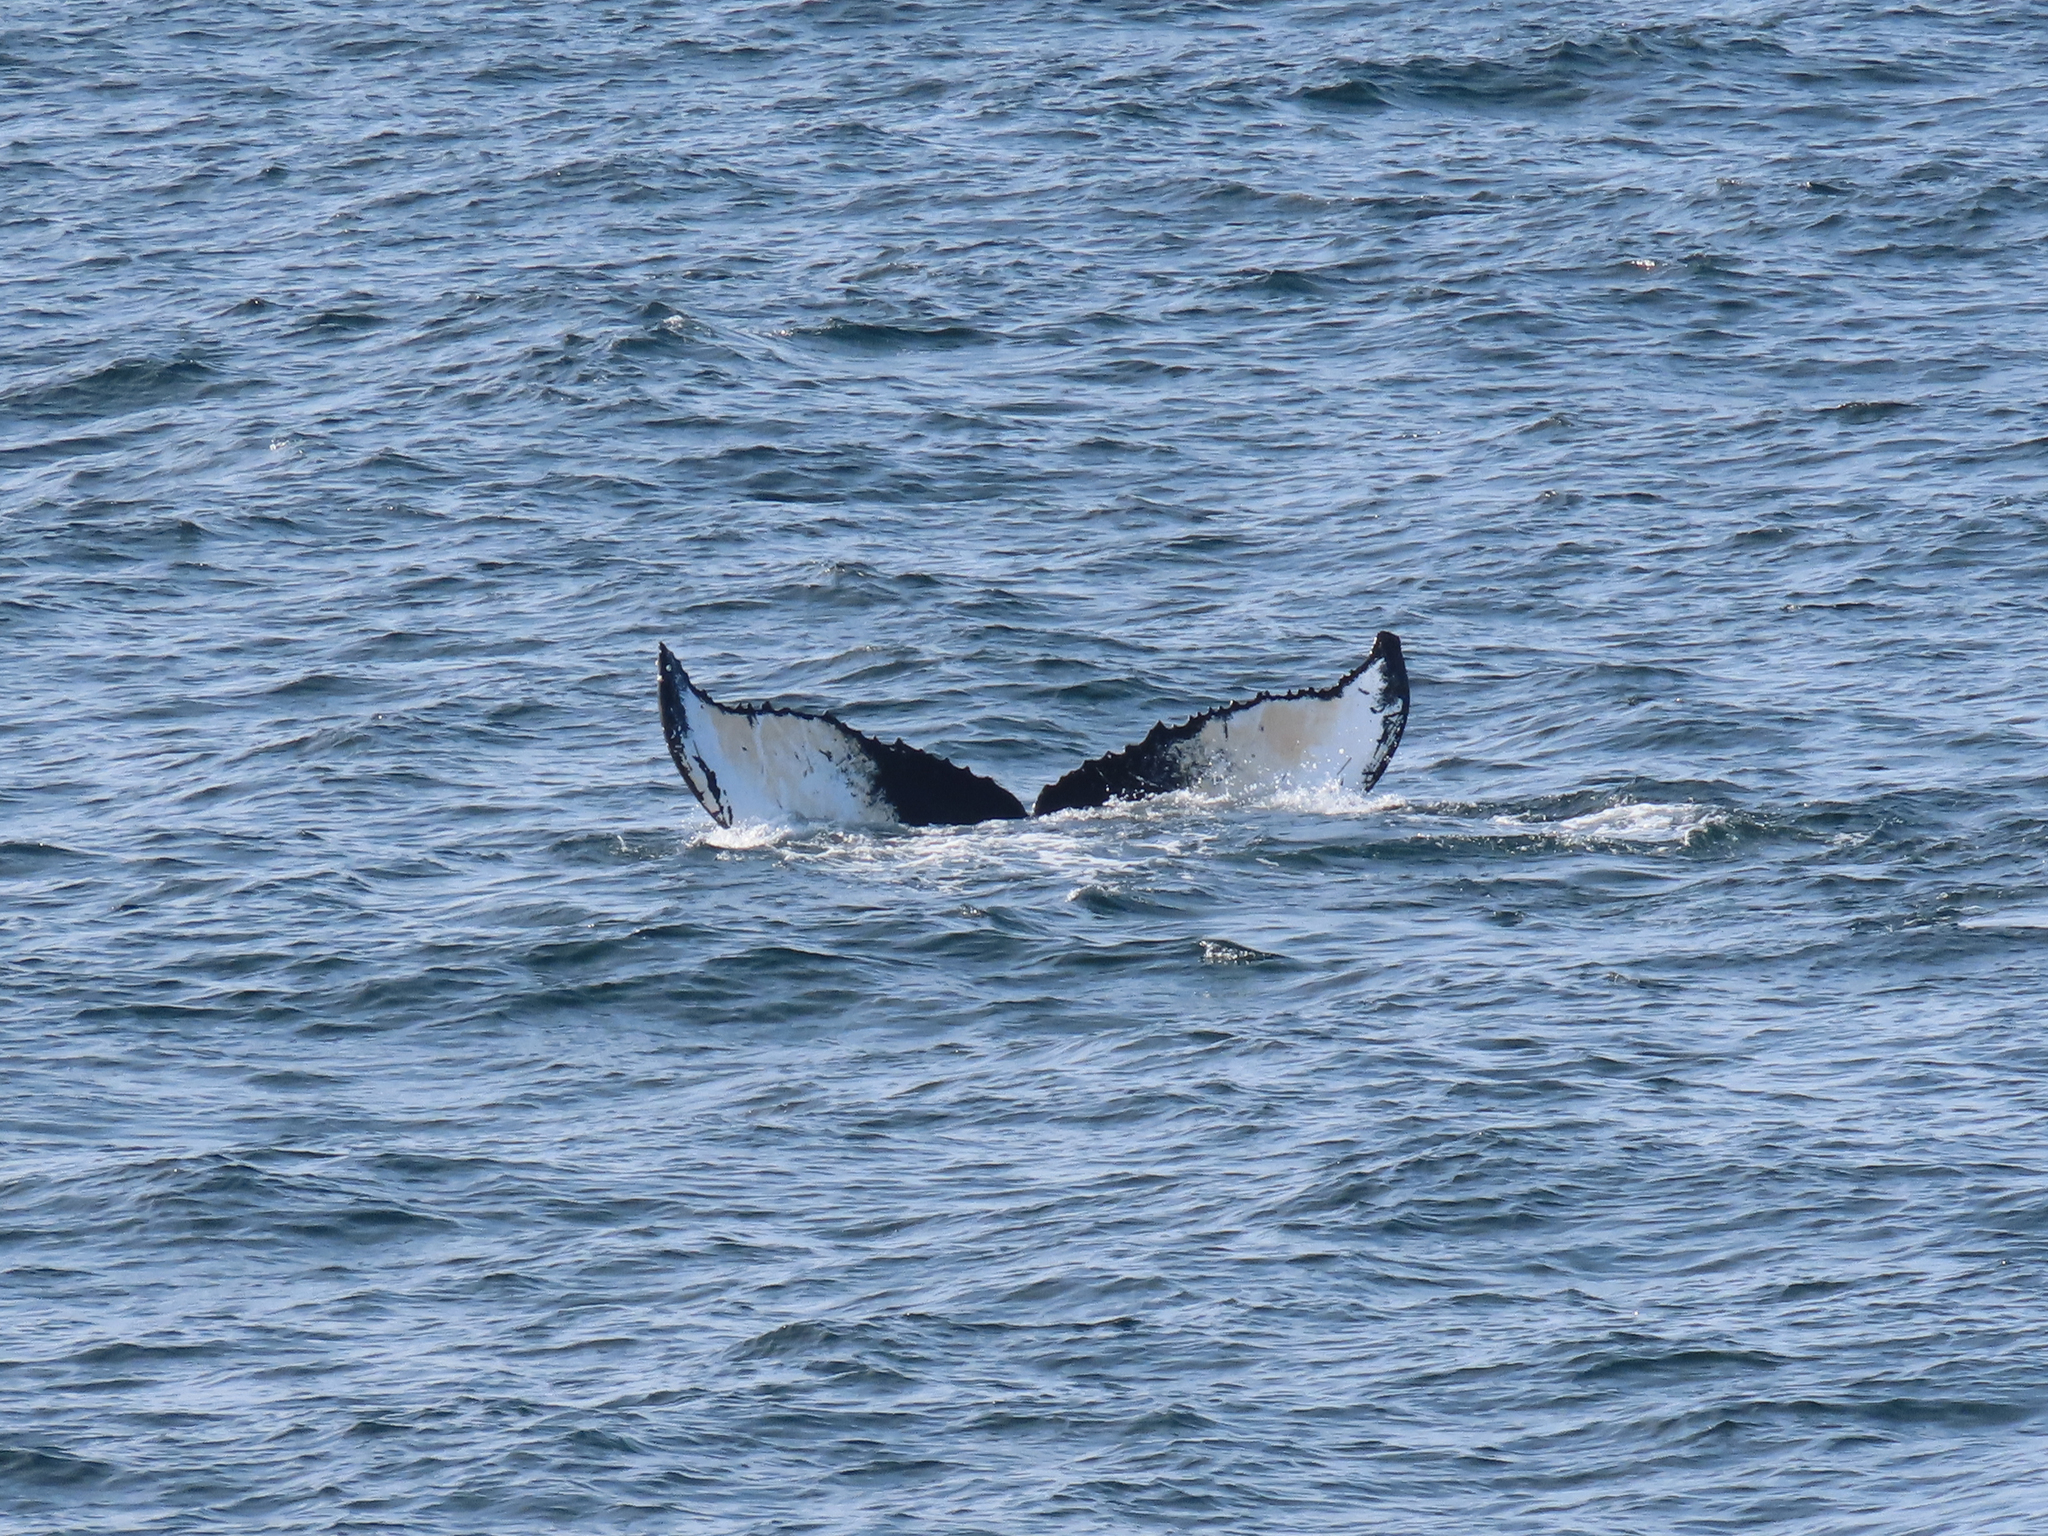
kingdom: Animalia
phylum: Chordata
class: Mammalia
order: Cetacea
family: Balaenopteridae
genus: Megaptera
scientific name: Megaptera novaeangliae
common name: Humpback whale
